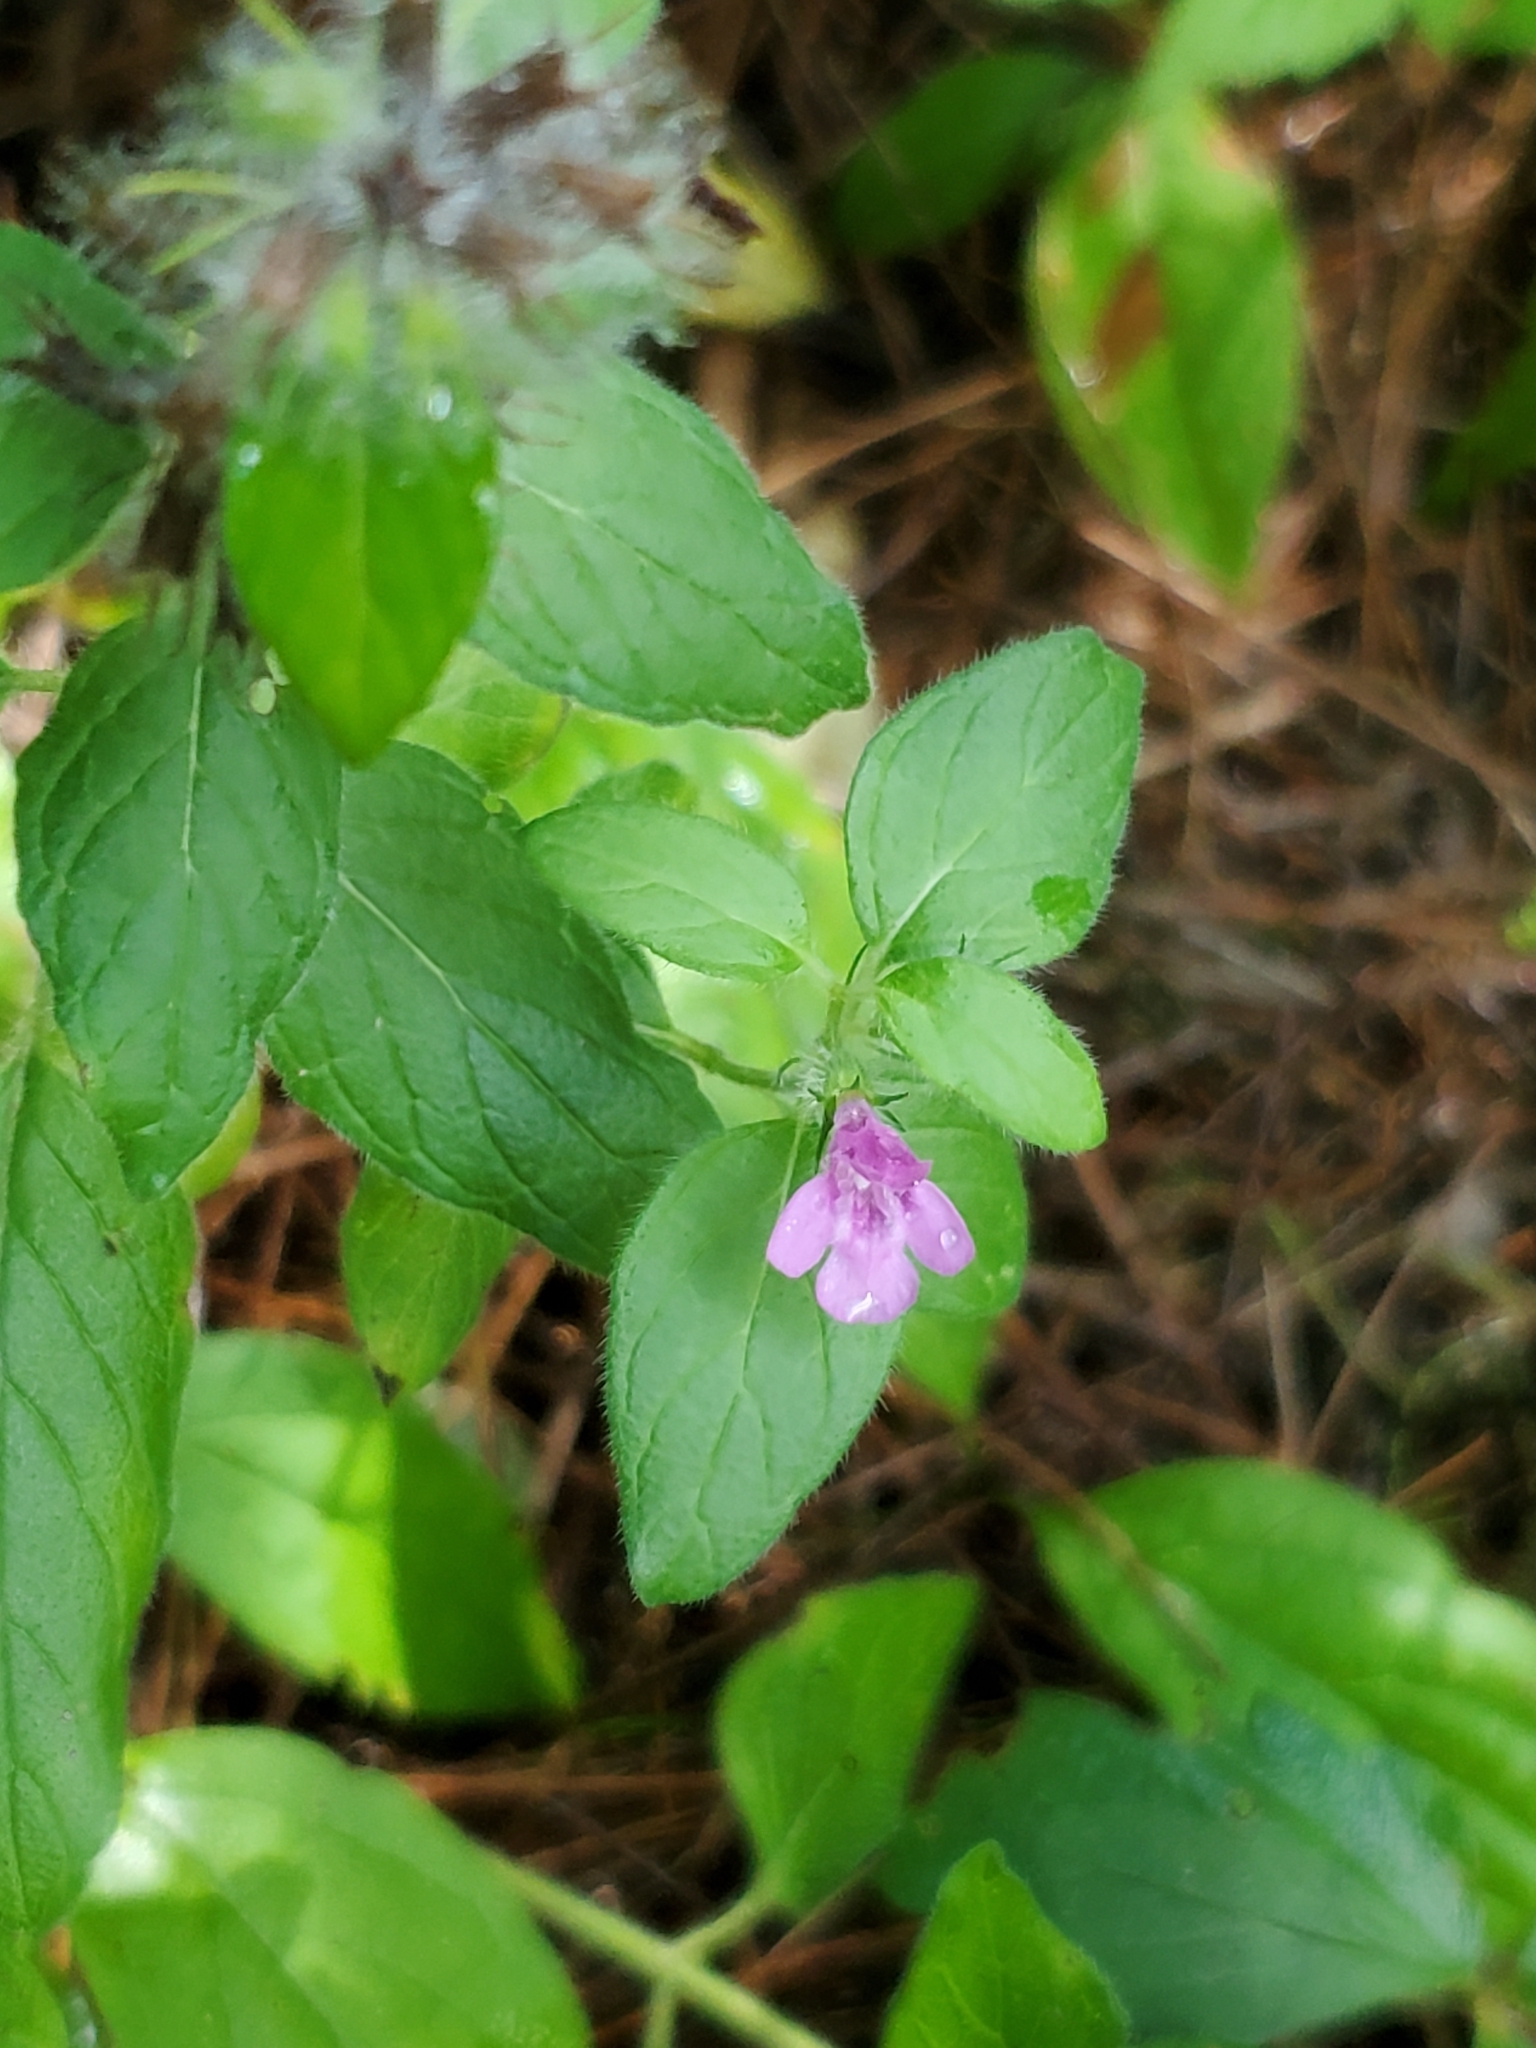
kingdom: Plantae
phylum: Tracheophyta
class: Magnoliopsida
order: Lamiales
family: Lamiaceae
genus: Clinopodium
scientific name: Clinopodium vulgare
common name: Wild basil
